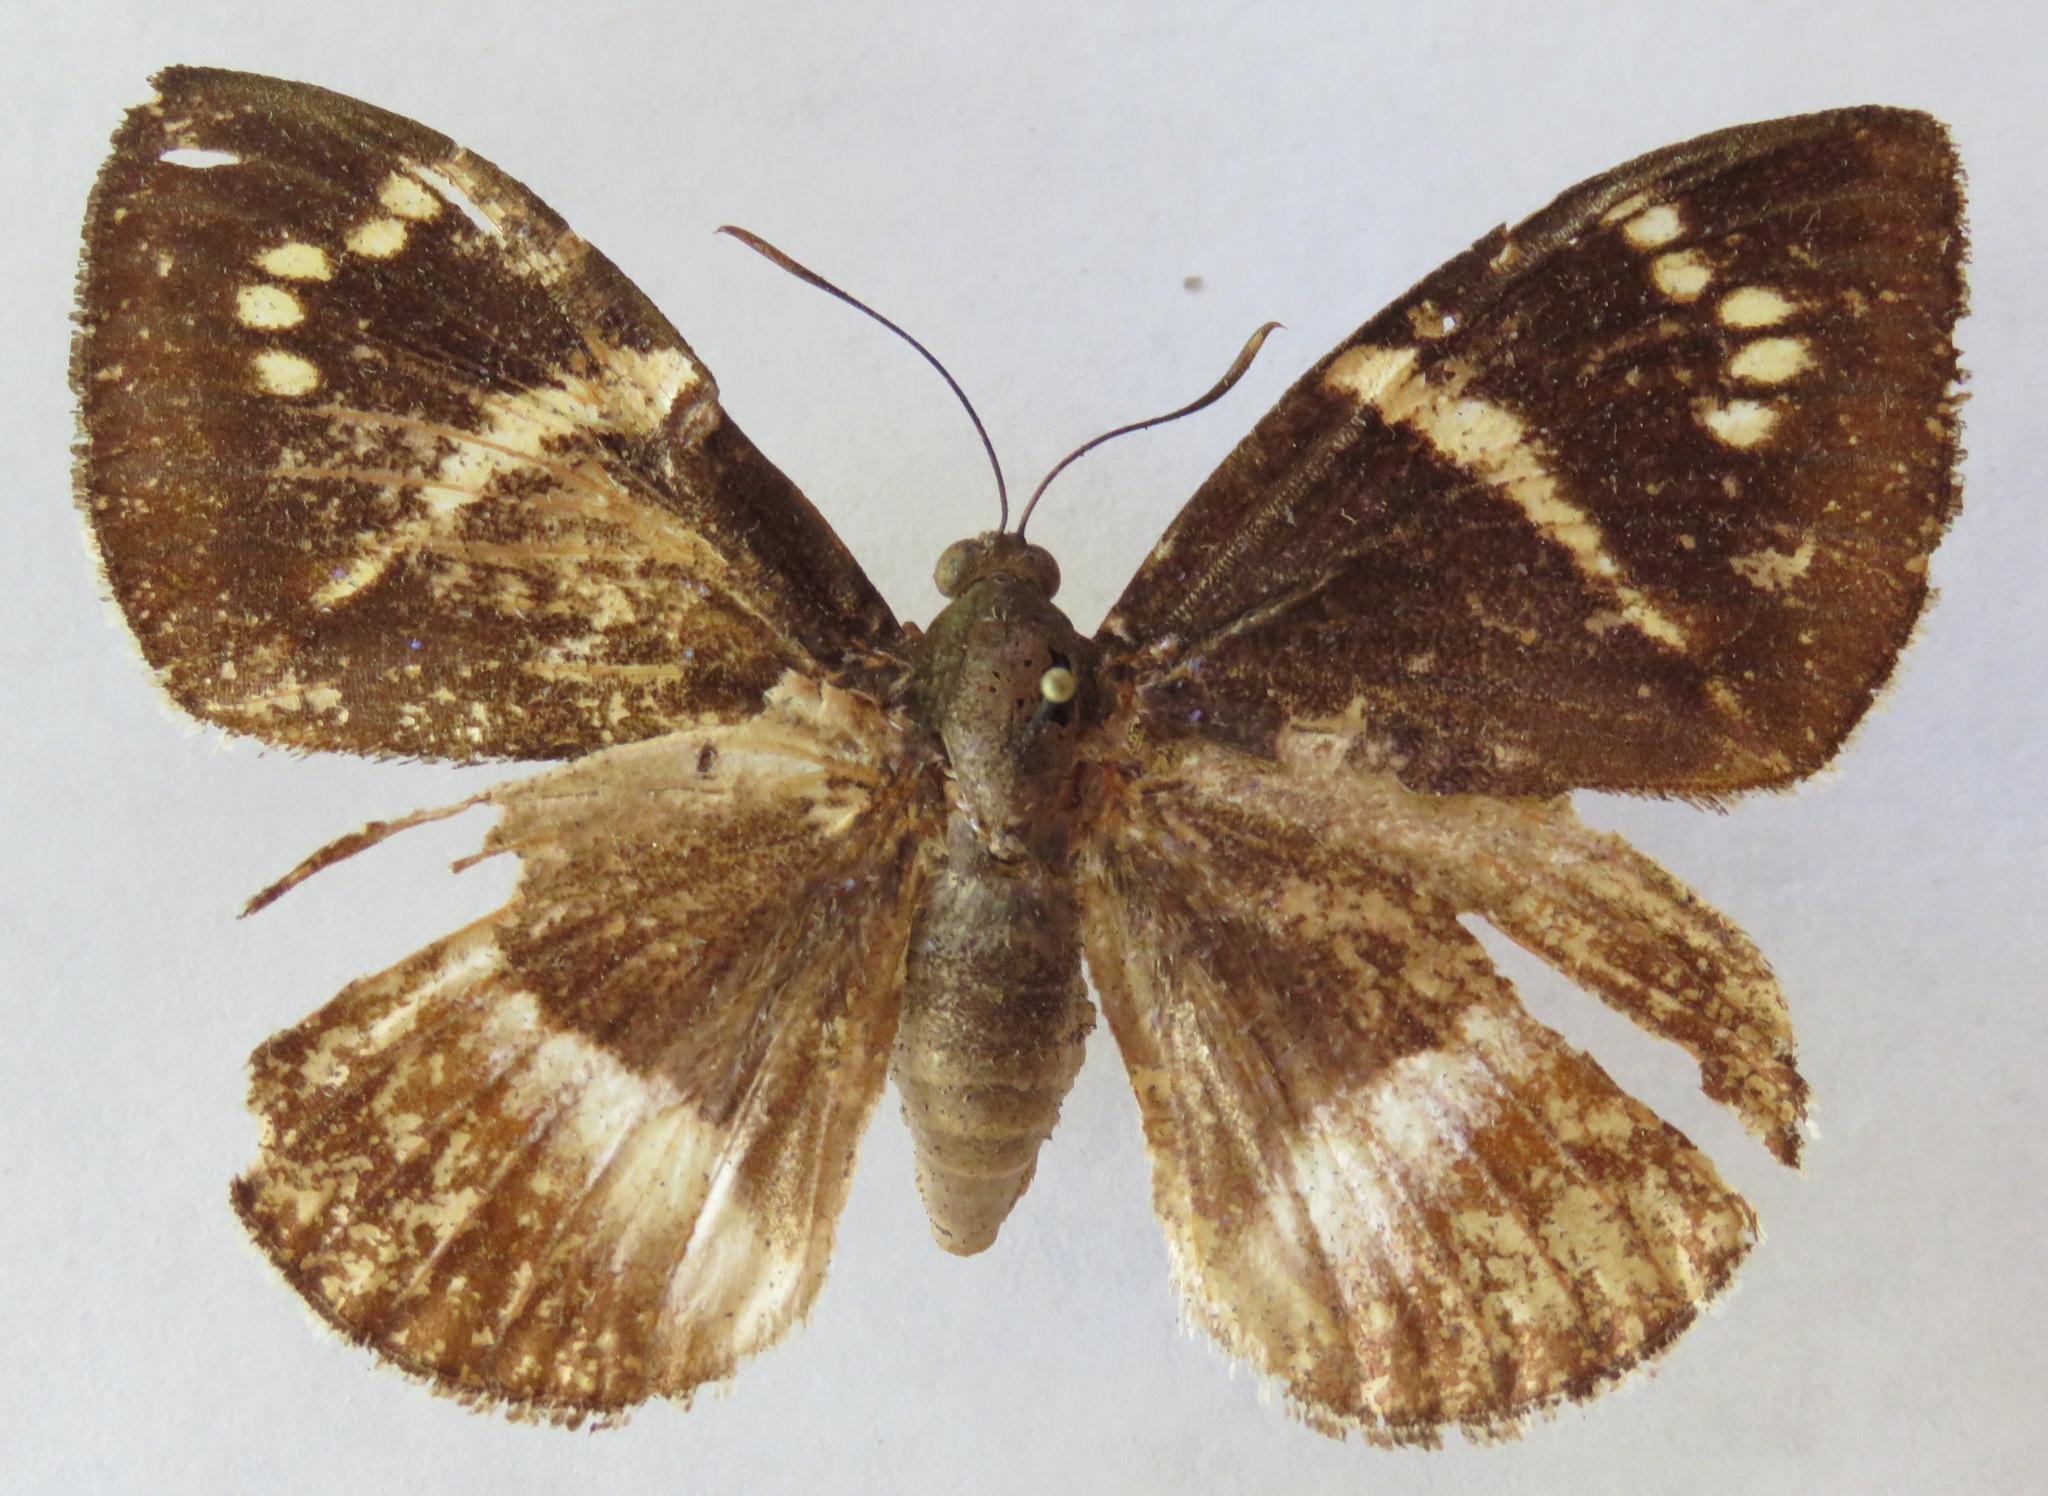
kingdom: Animalia
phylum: Arthropoda
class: Insecta
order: Lepidoptera
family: Castniidae
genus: Castniomera
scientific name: Castniomera atymnius
